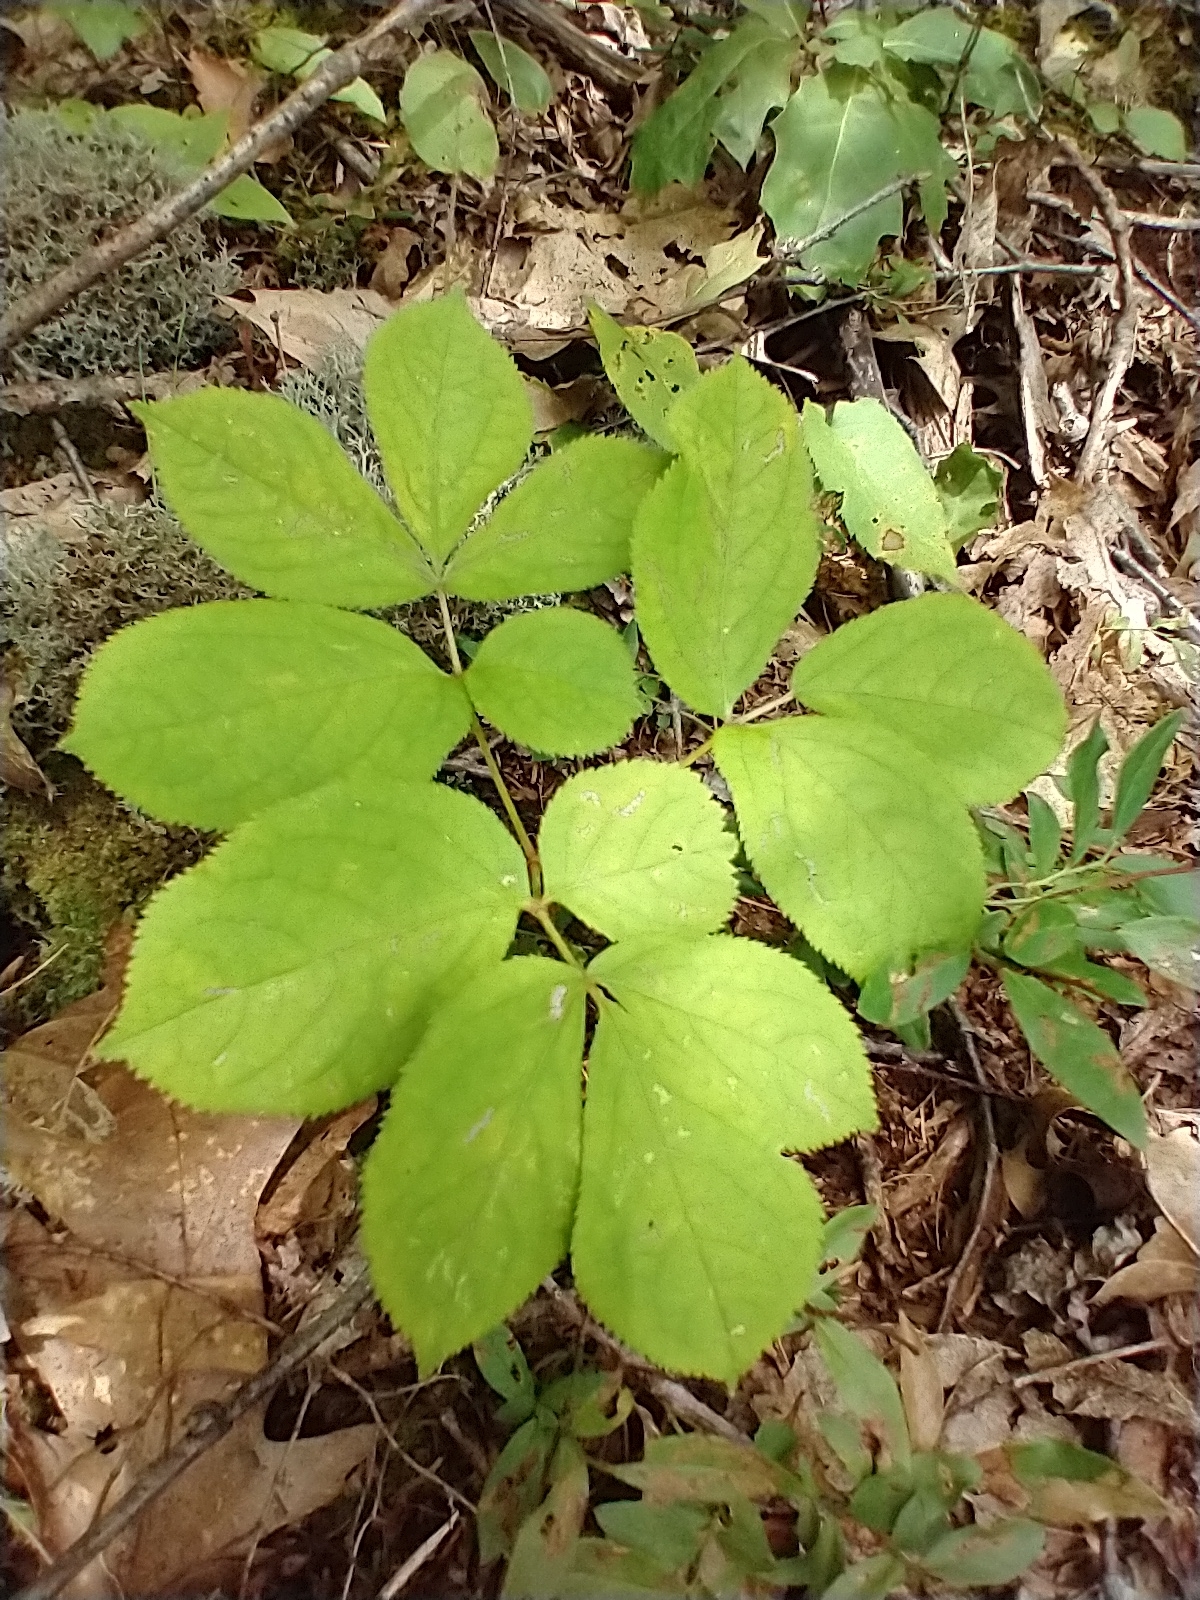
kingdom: Plantae
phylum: Tracheophyta
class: Magnoliopsida
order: Apiales
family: Araliaceae
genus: Aralia
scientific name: Aralia nudicaulis
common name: Wild sarsaparilla
